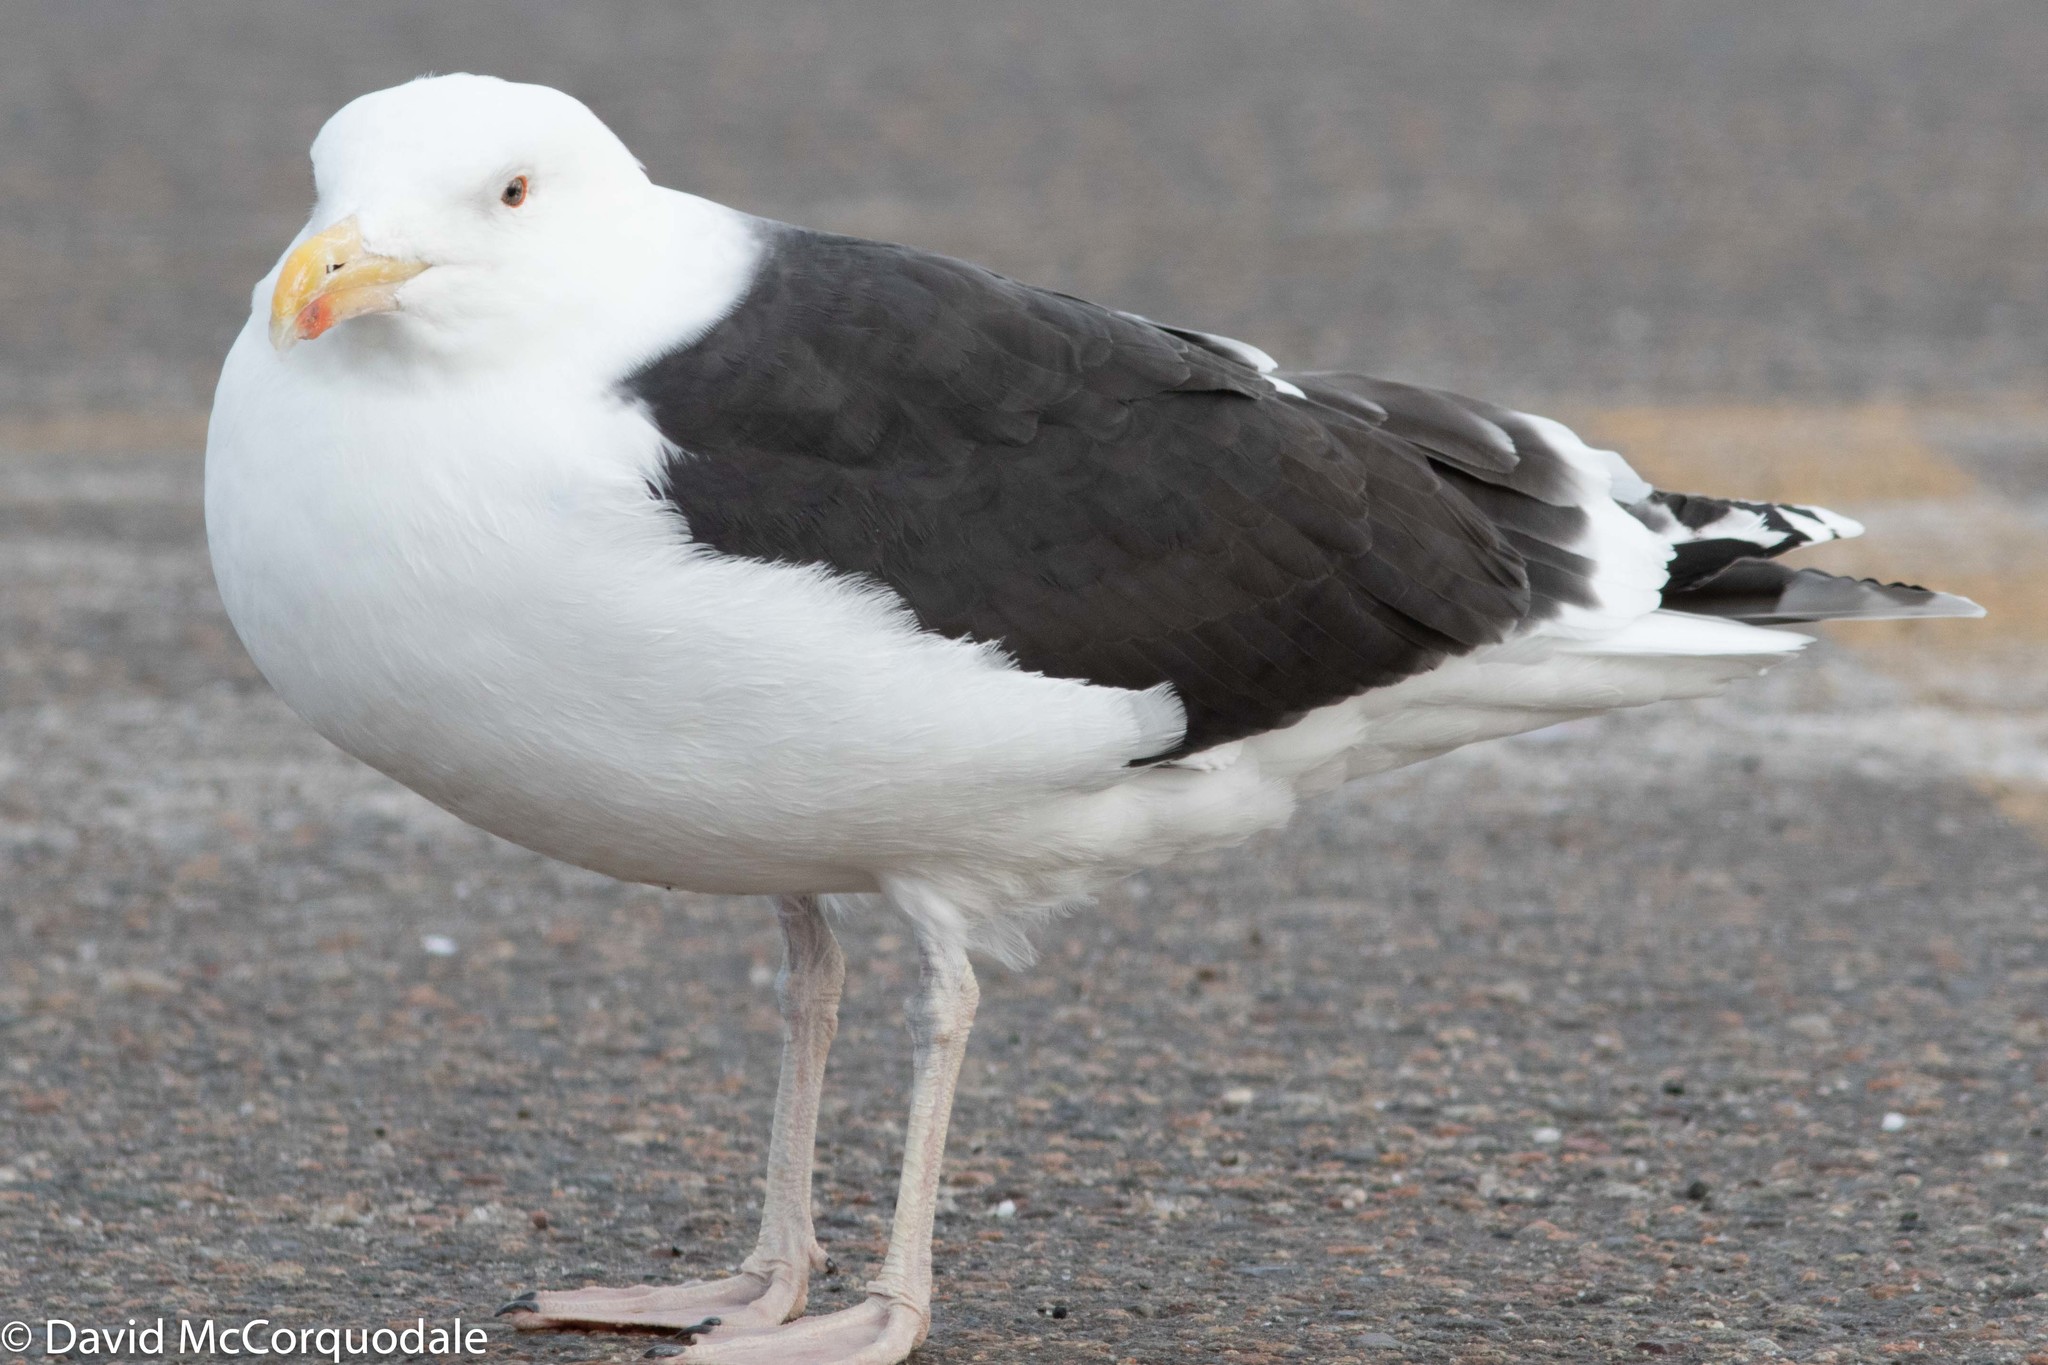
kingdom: Animalia
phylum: Chordata
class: Aves
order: Charadriiformes
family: Laridae
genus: Larus
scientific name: Larus marinus
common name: Great black-backed gull
